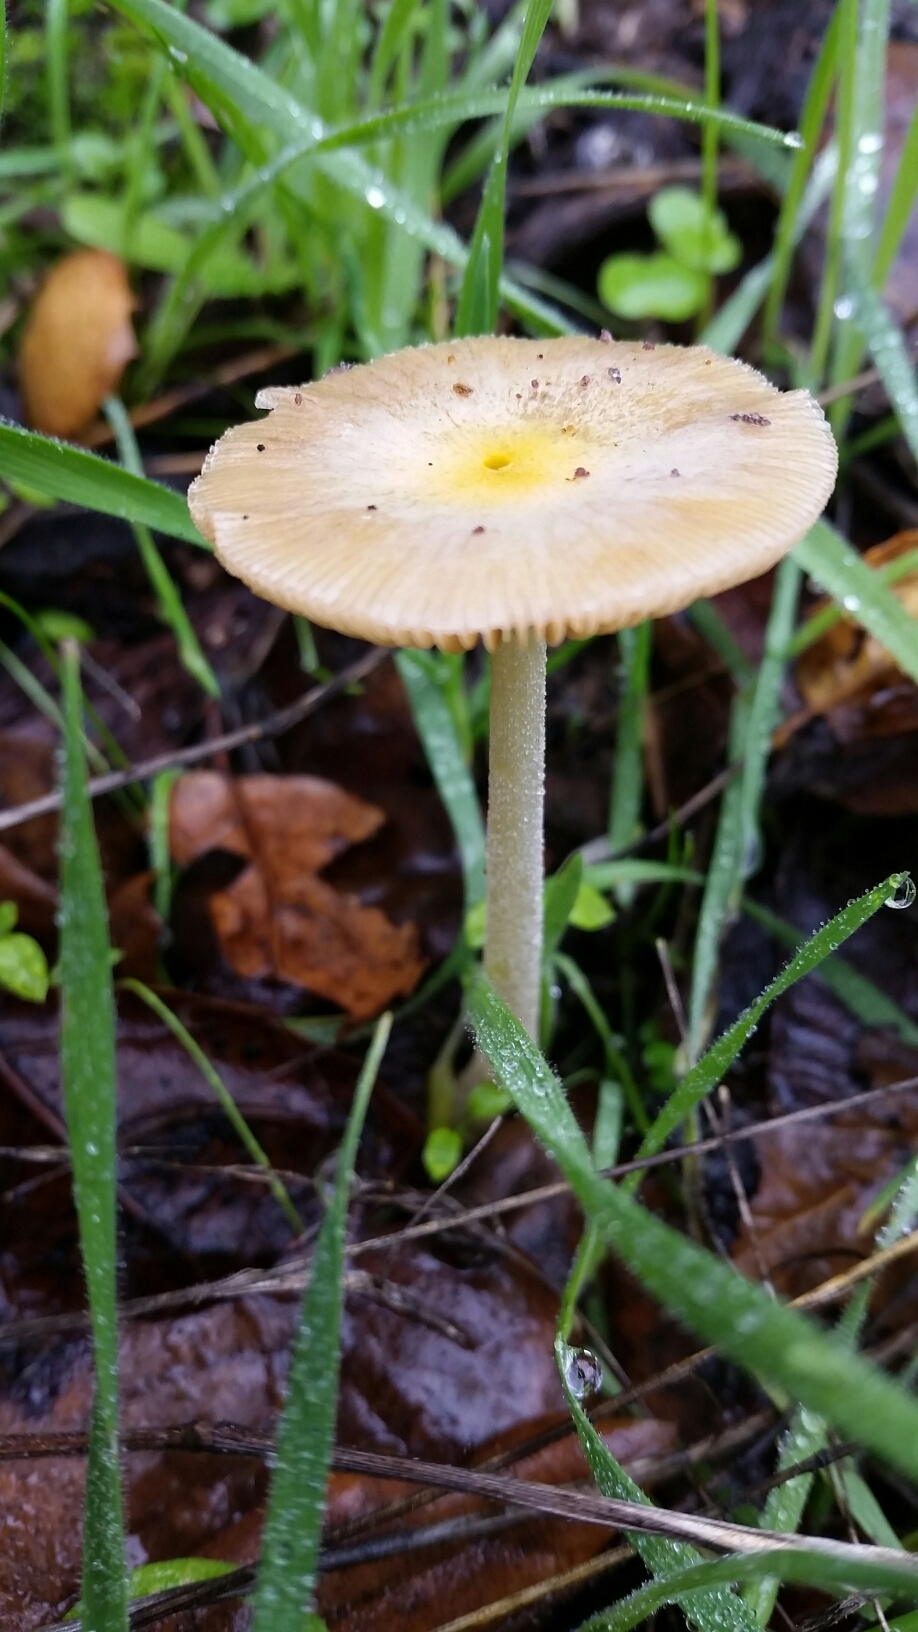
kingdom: Fungi
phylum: Basidiomycota
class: Agaricomycetes
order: Agaricales
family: Bolbitiaceae
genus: Bolbitius
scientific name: Bolbitius titubans
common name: Yellow fieldcap
